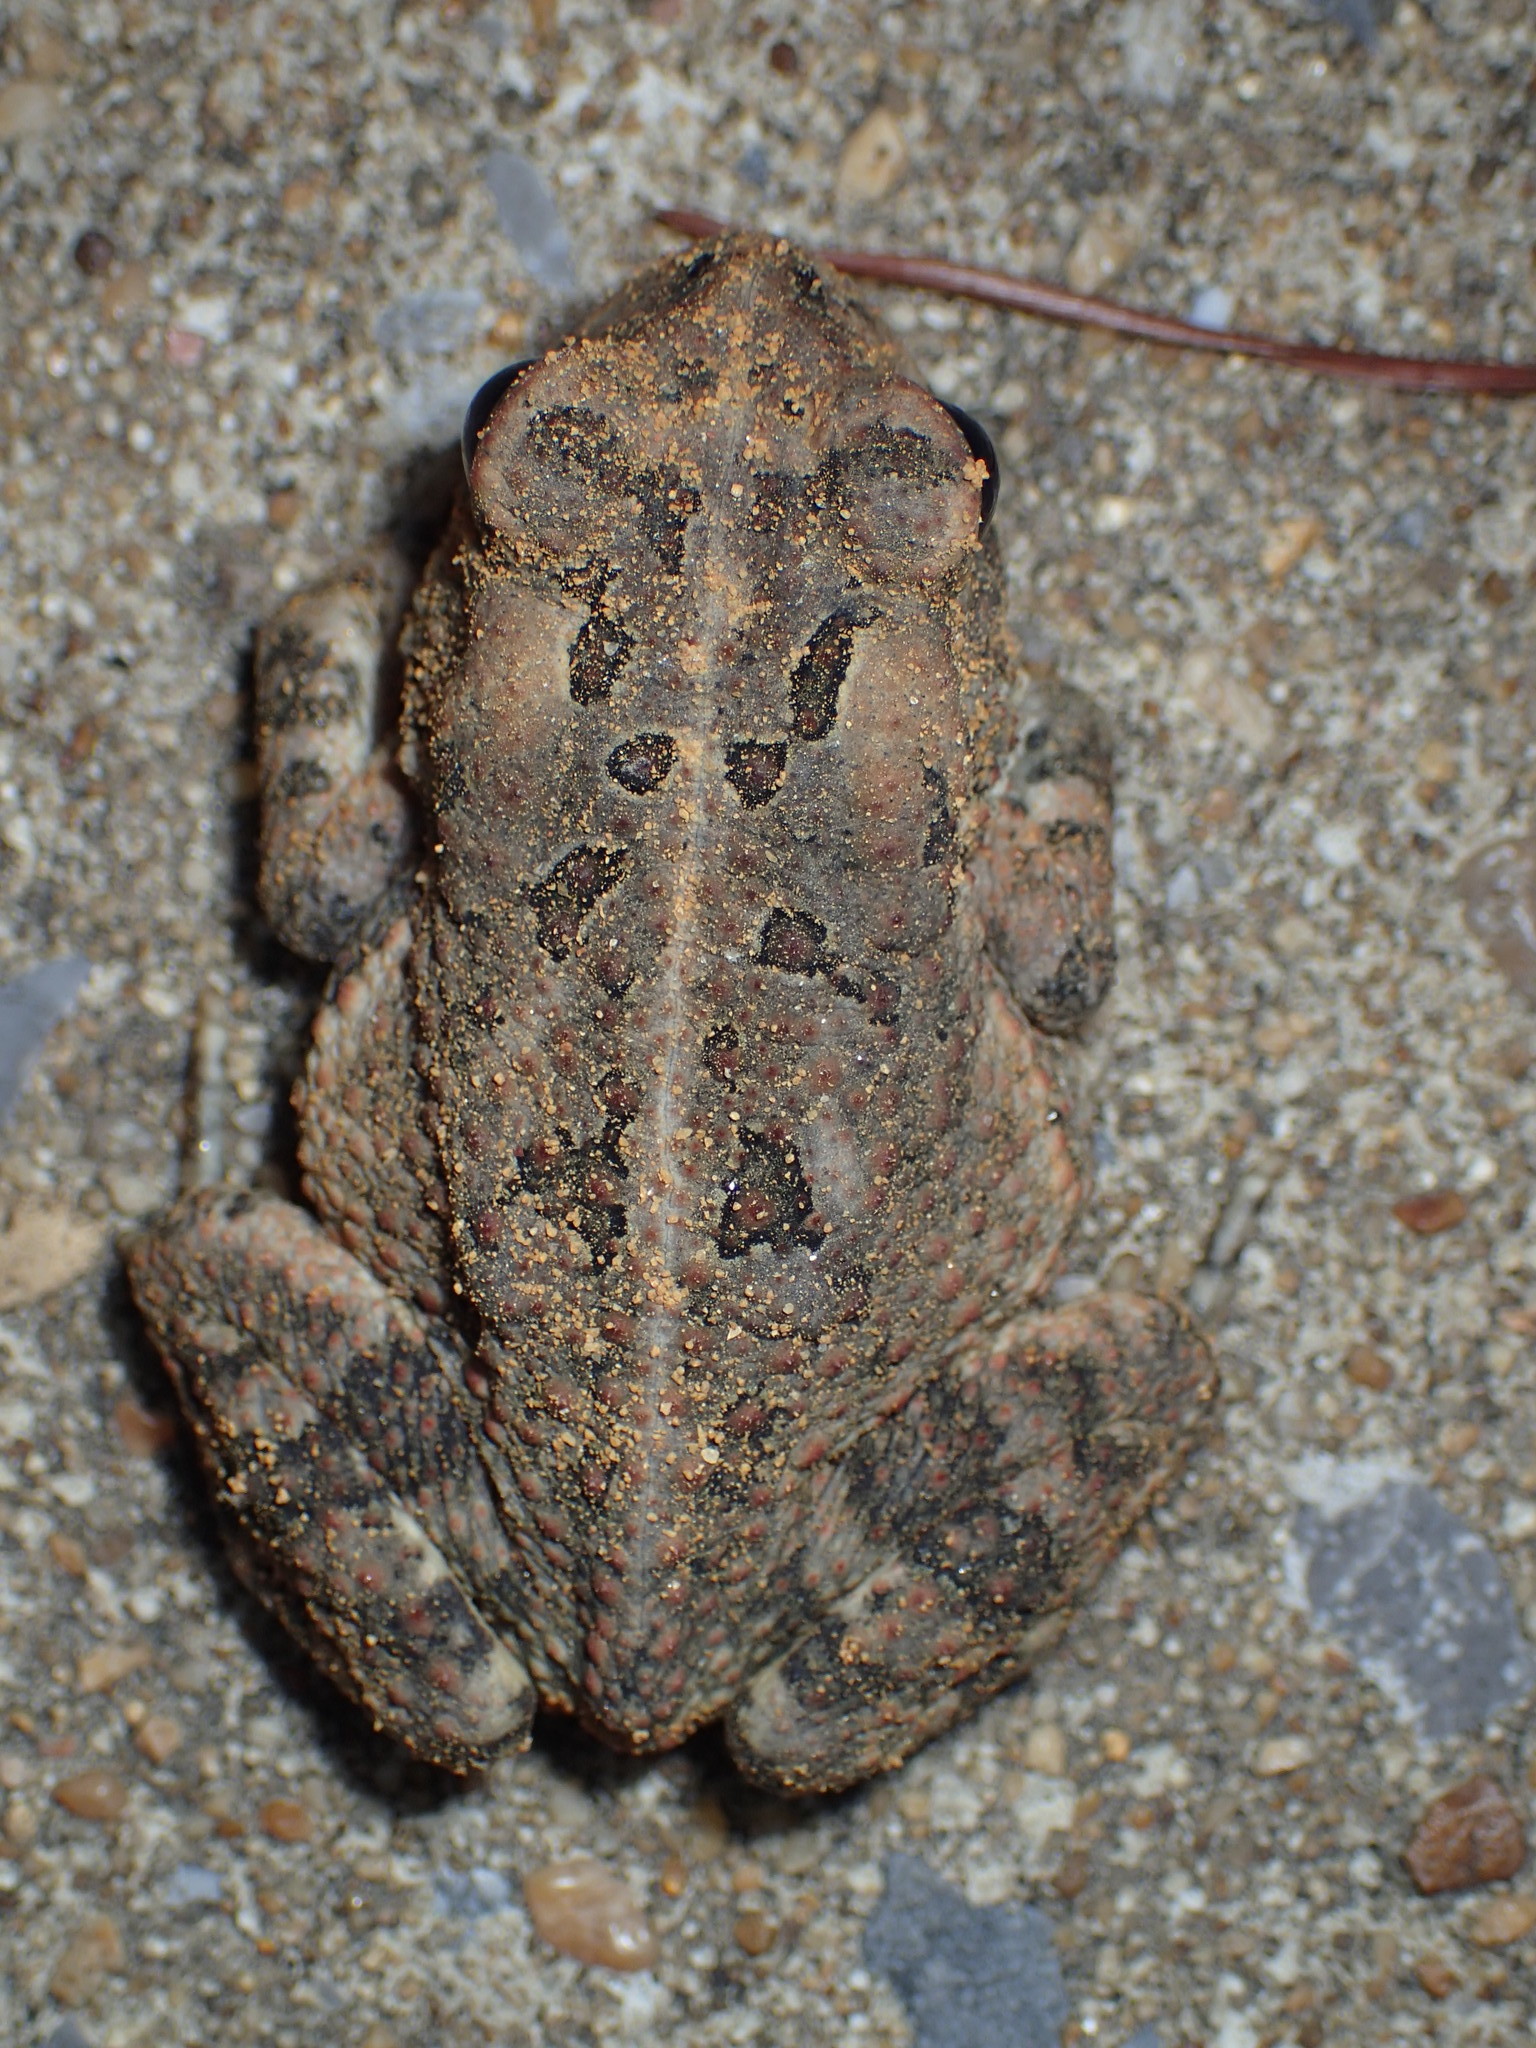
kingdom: Animalia
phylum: Chordata
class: Amphibia
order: Anura
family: Bufonidae
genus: Anaxyrus
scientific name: Anaxyrus fowleri
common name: Fowler's toad
